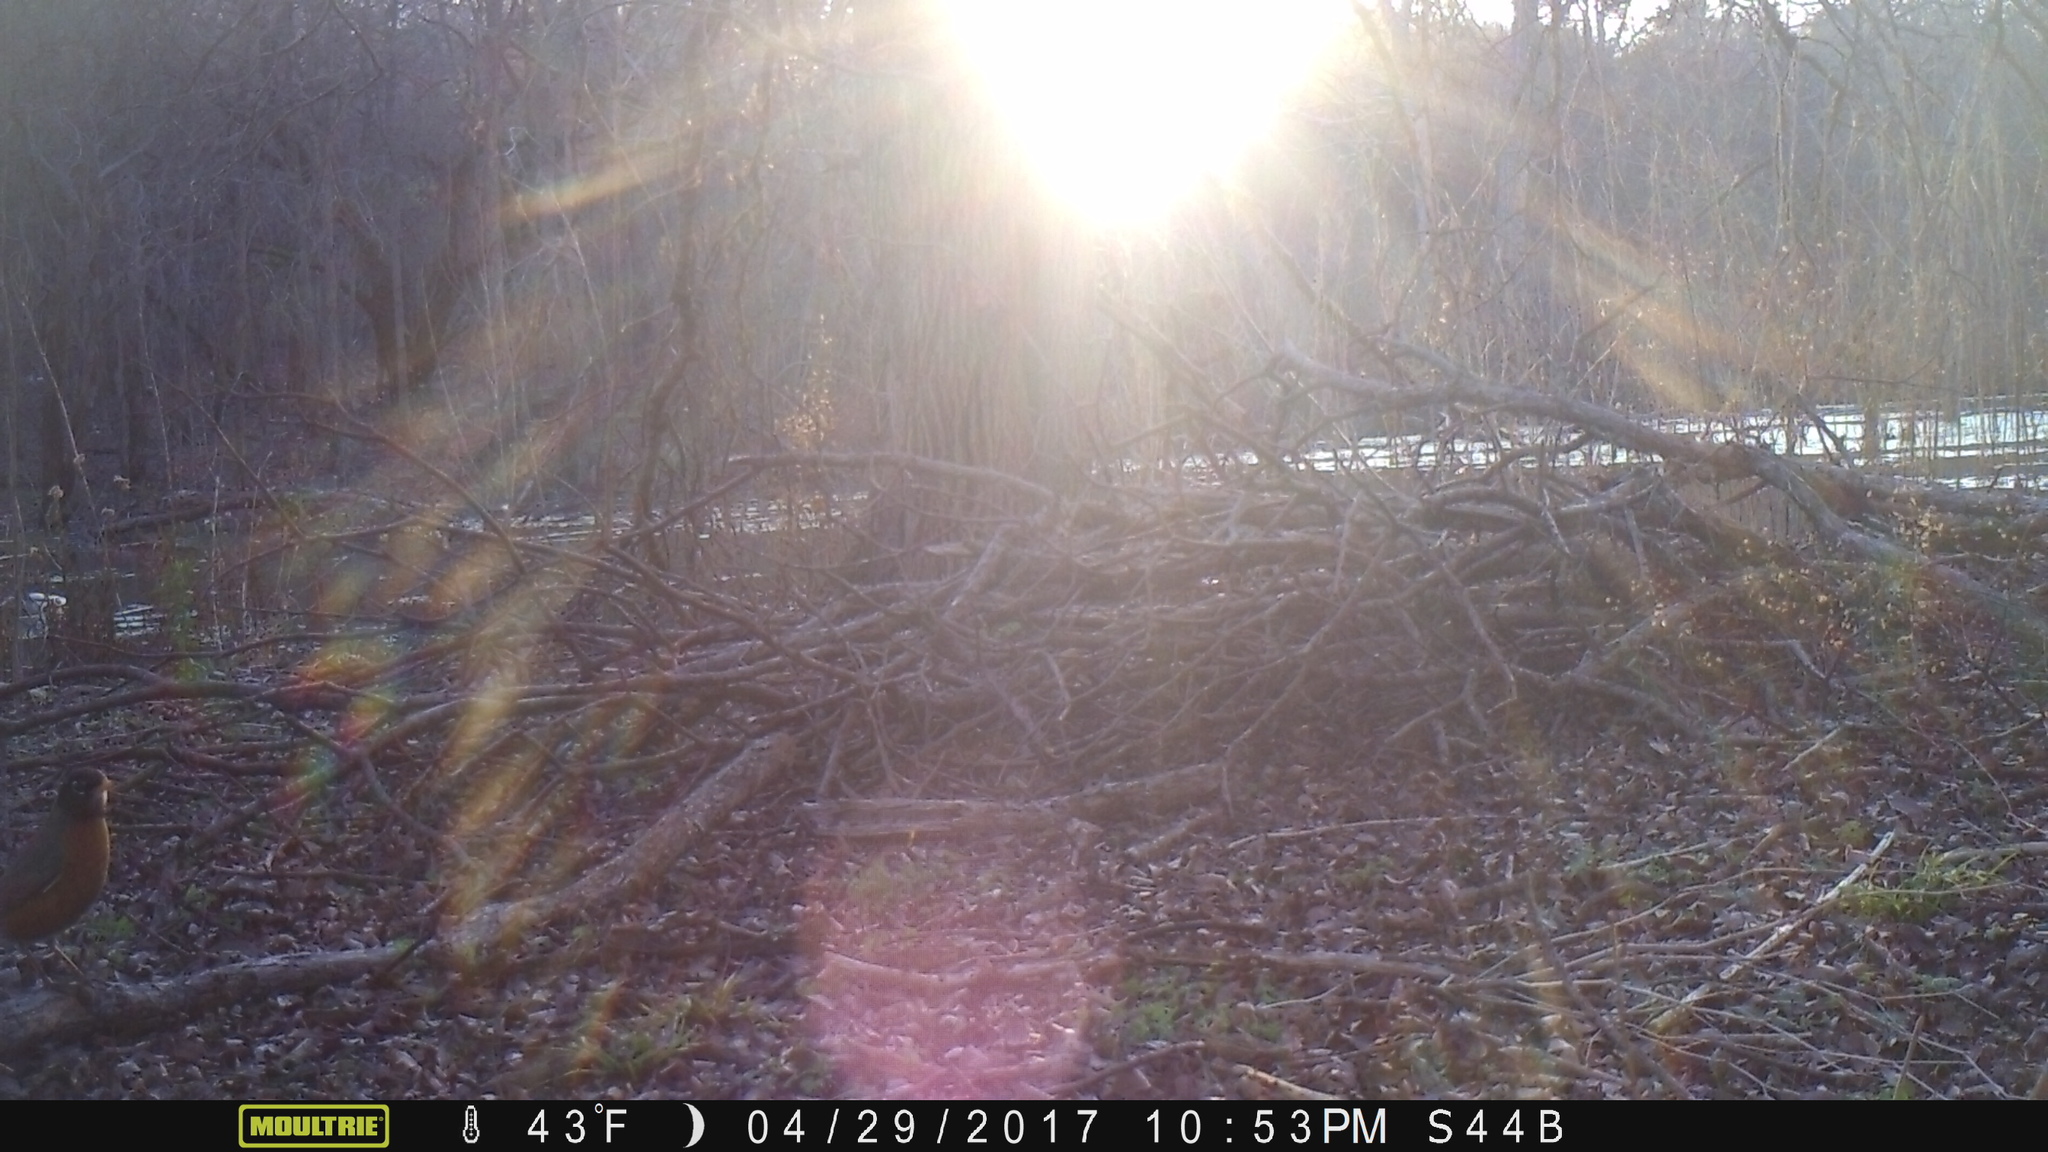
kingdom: Animalia
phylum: Chordata
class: Aves
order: Passeriformes
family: Turdidae
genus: Turdus
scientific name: Turdus migratorius
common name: American robin
